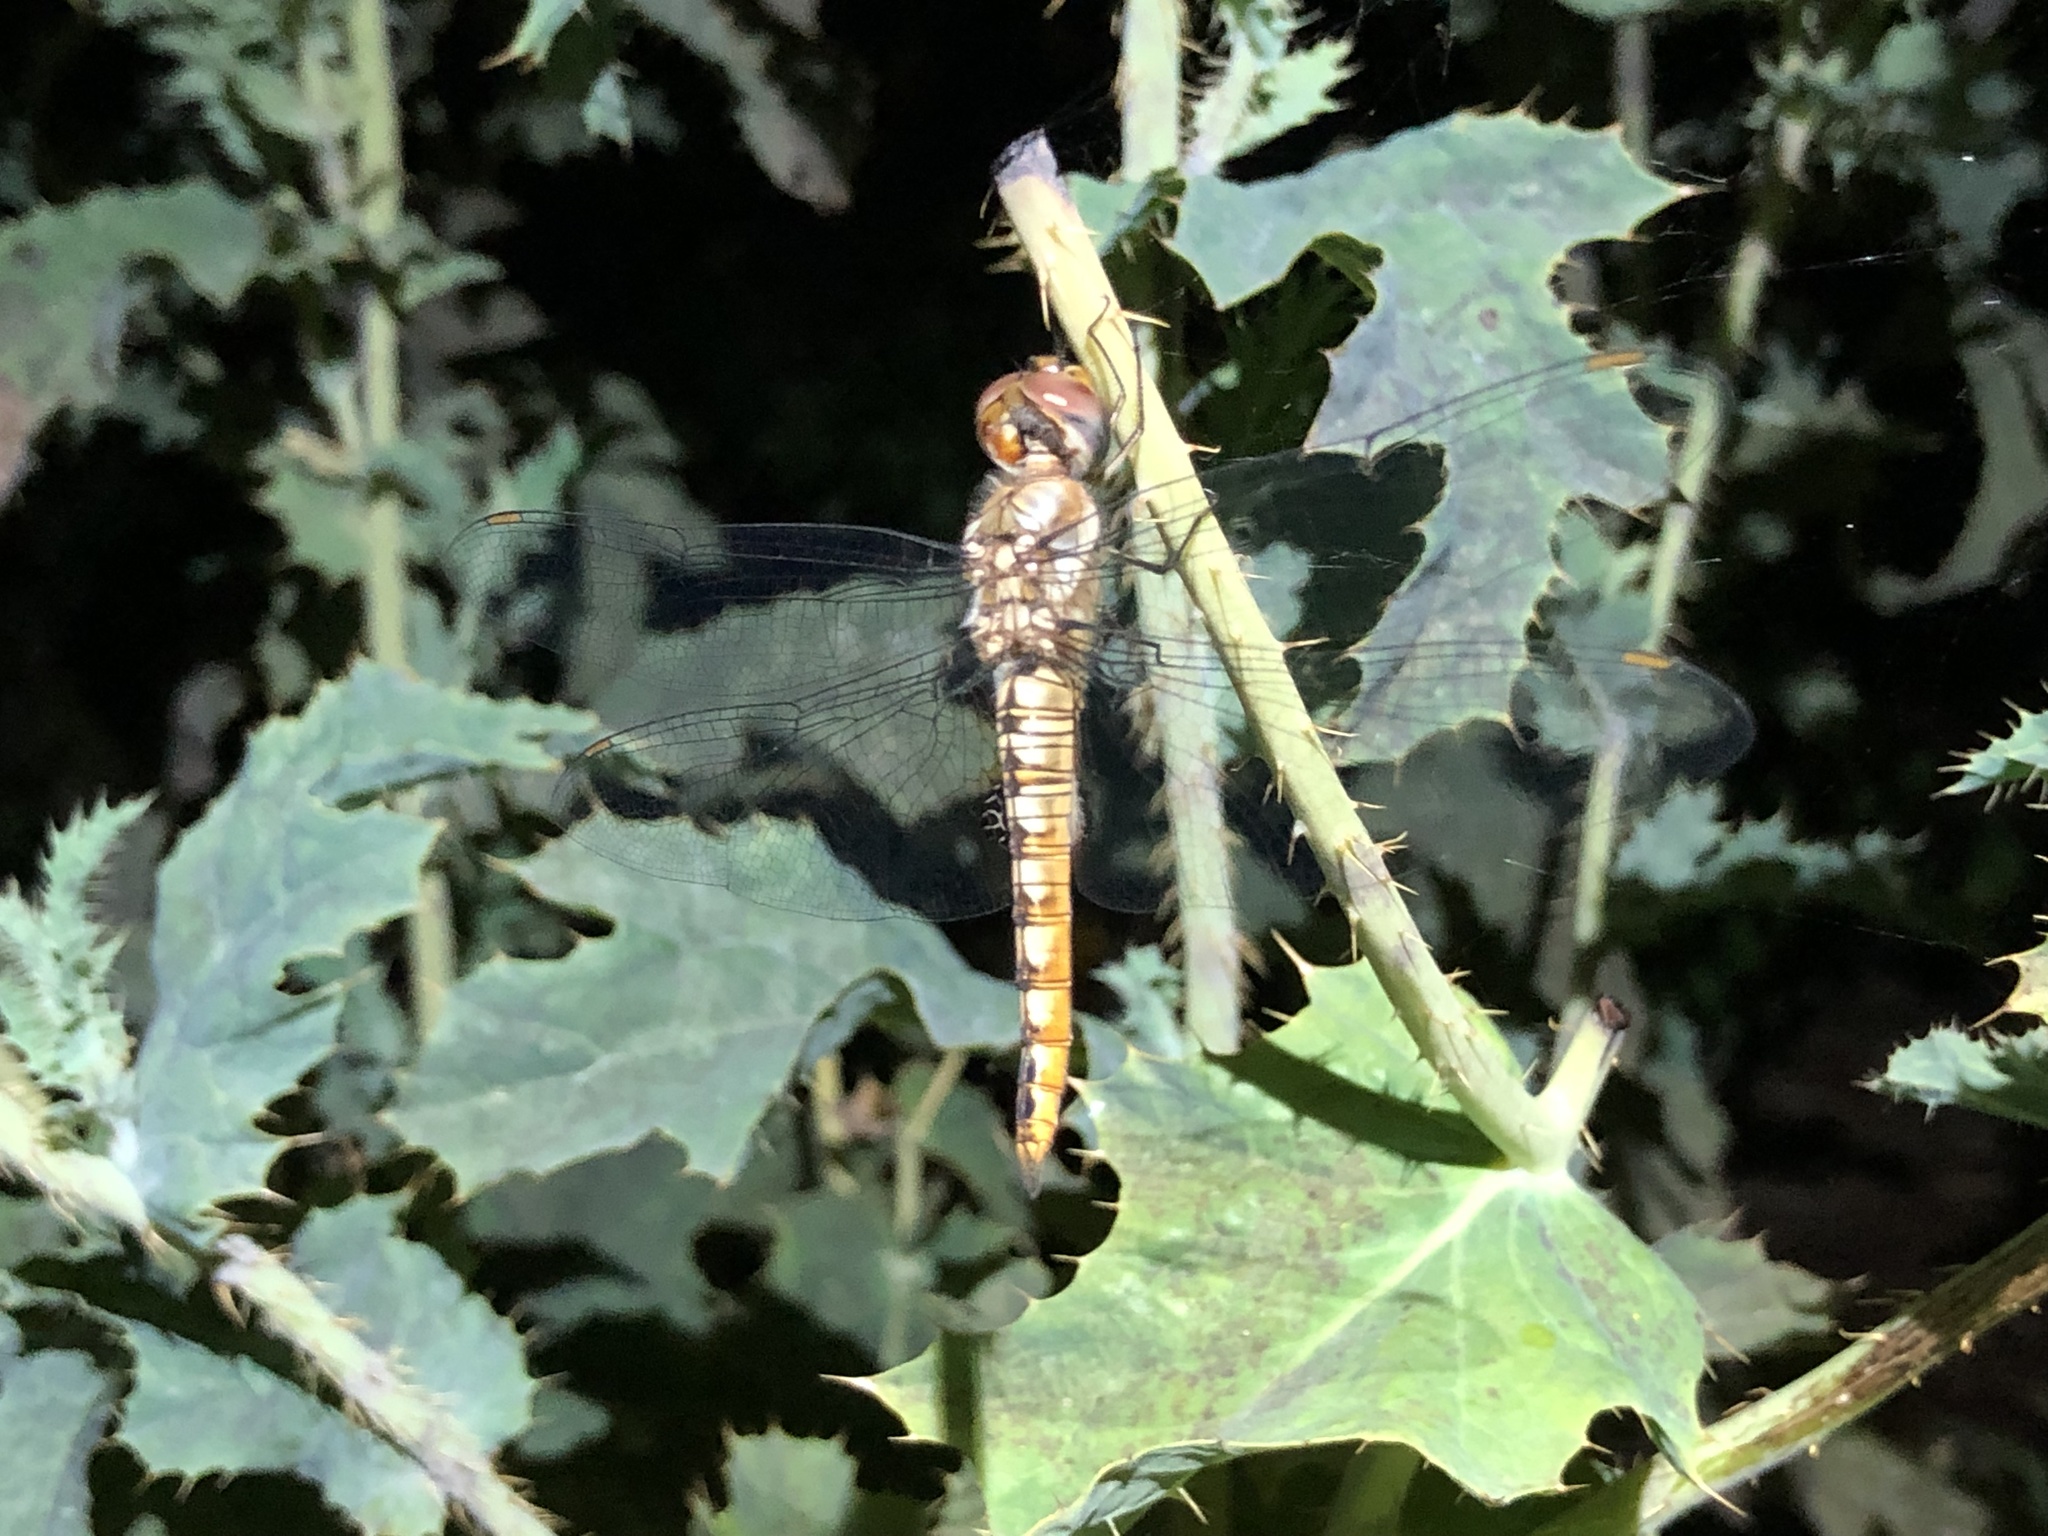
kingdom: Animalia
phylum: Arthropoda
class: Insecta
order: Odonata
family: Libellulidae
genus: Pantala
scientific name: Pantala hymenaea
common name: Spot-winged glider
